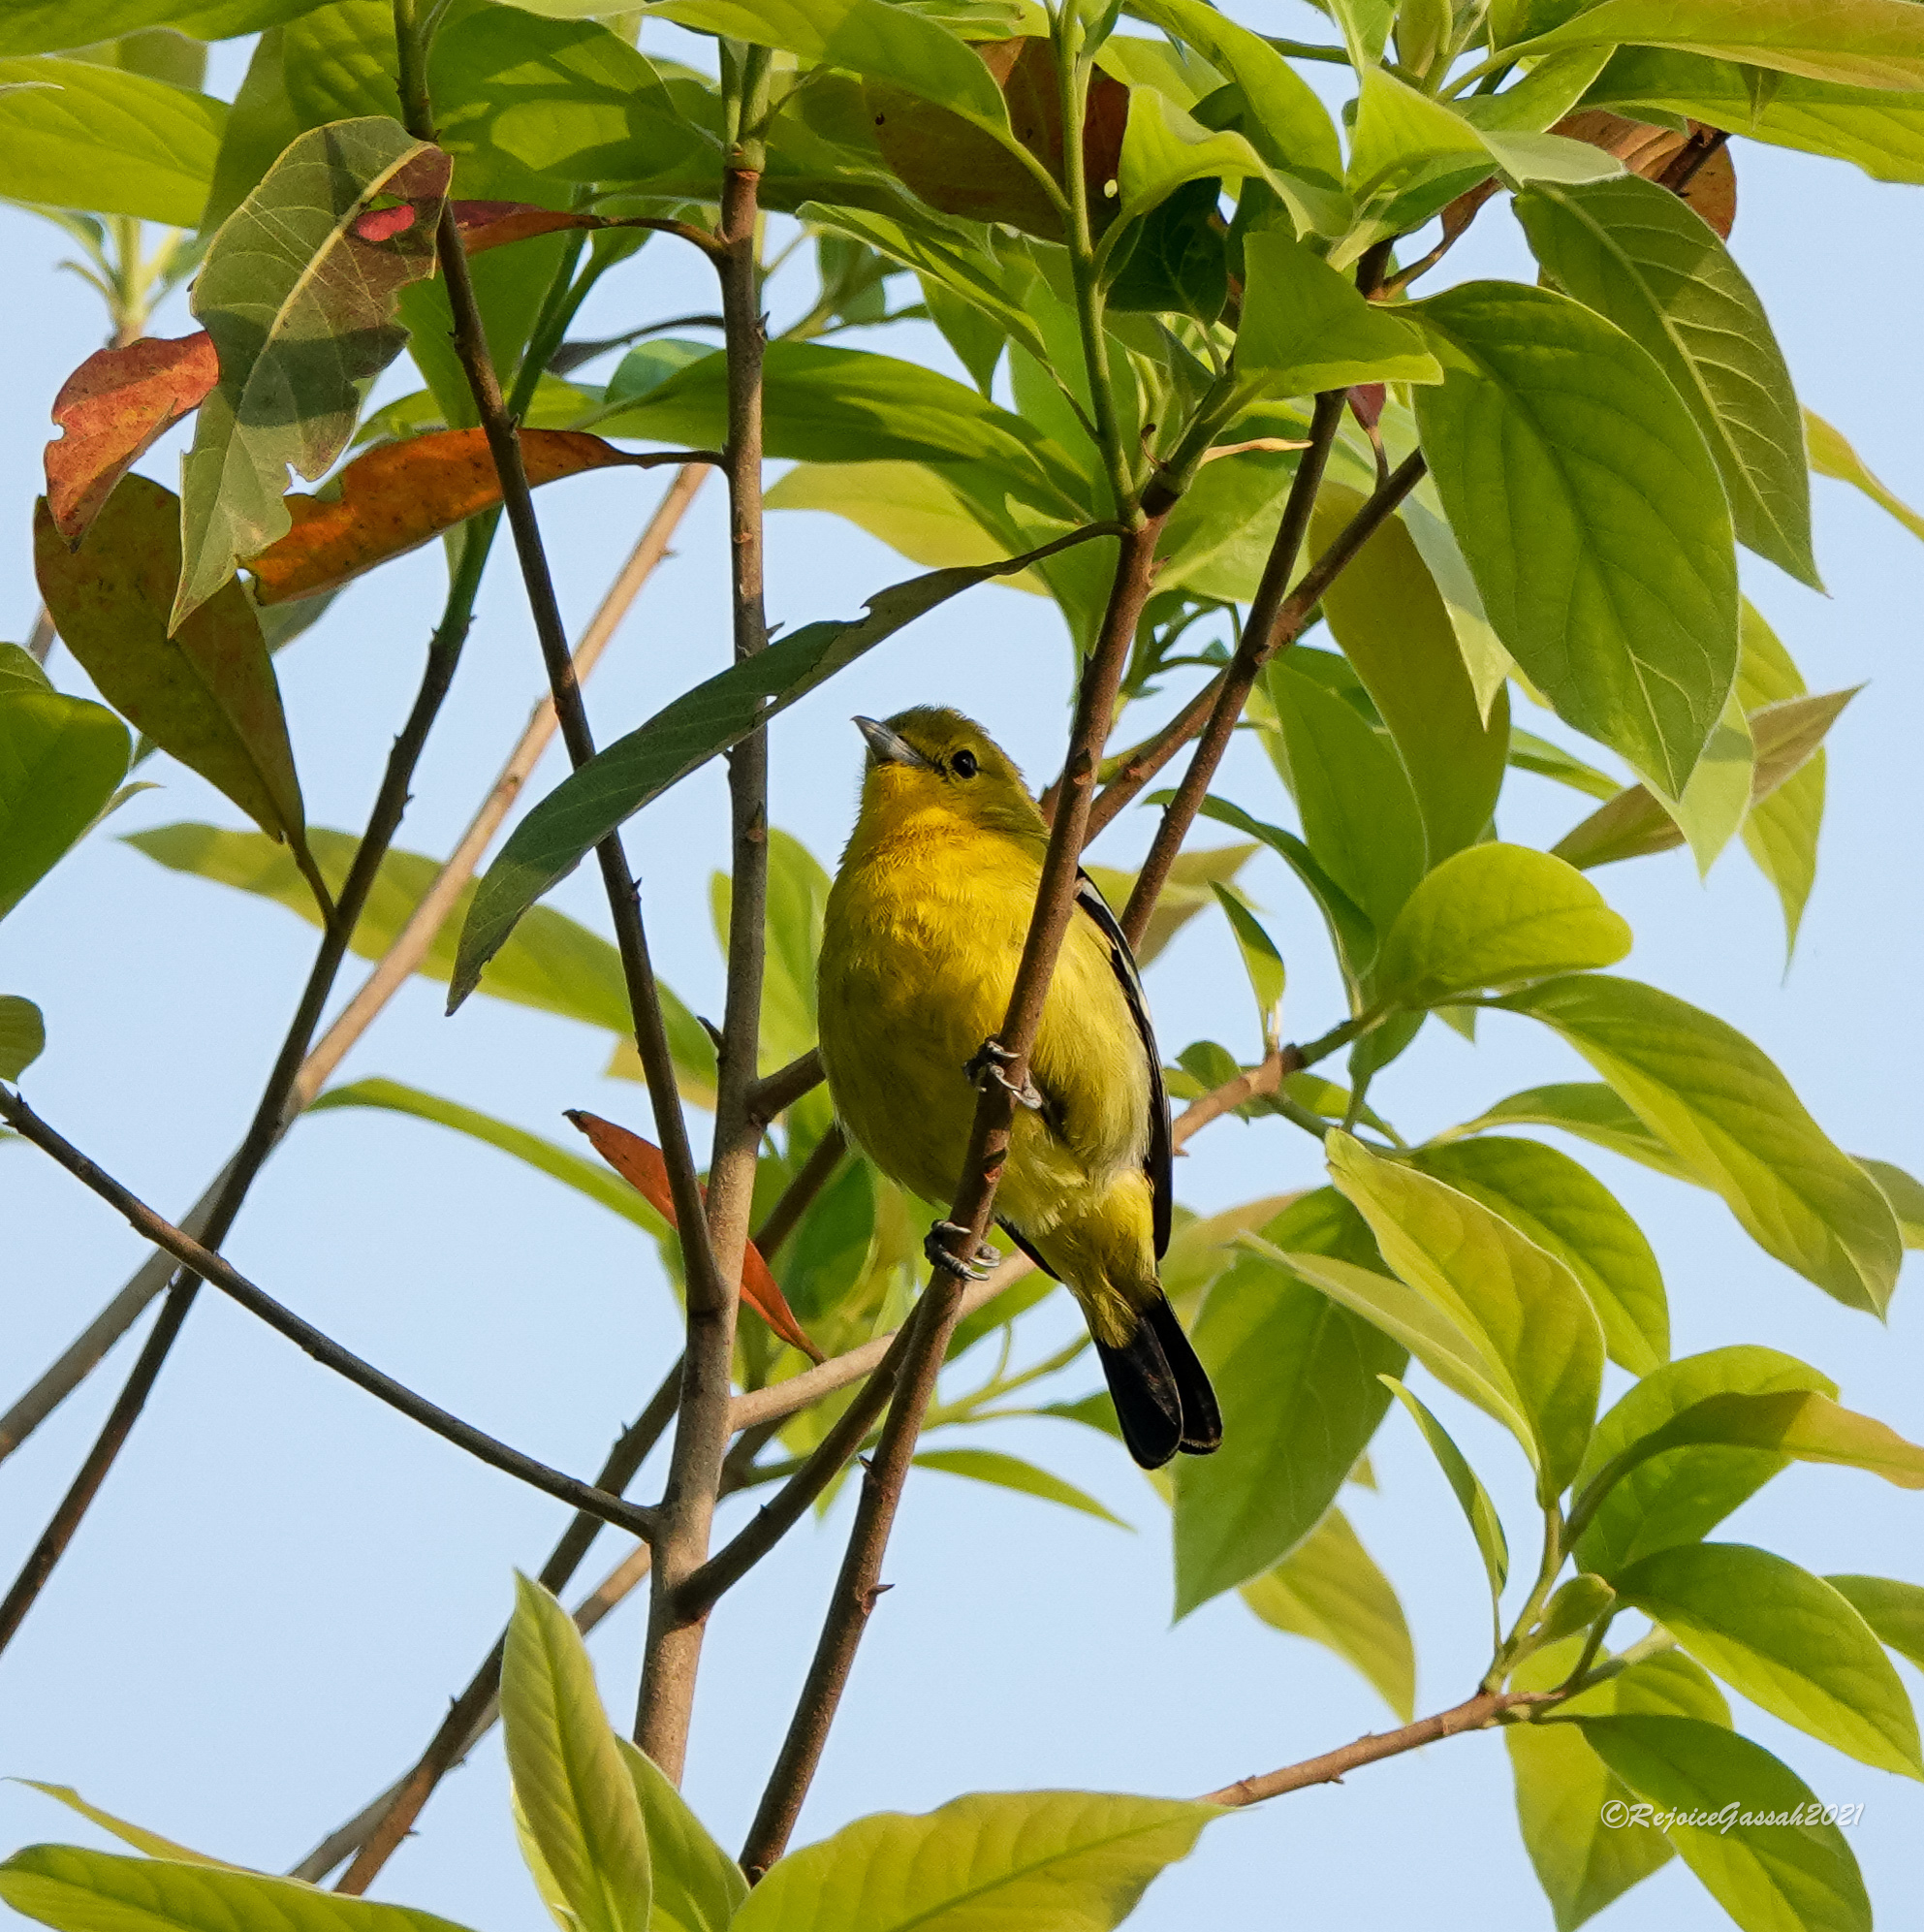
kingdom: Animalia
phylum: Chordata
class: Aves
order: Passeriformes
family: Aegithinidae
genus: Aegithina
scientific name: Aegithina tiphia
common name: Common iora
